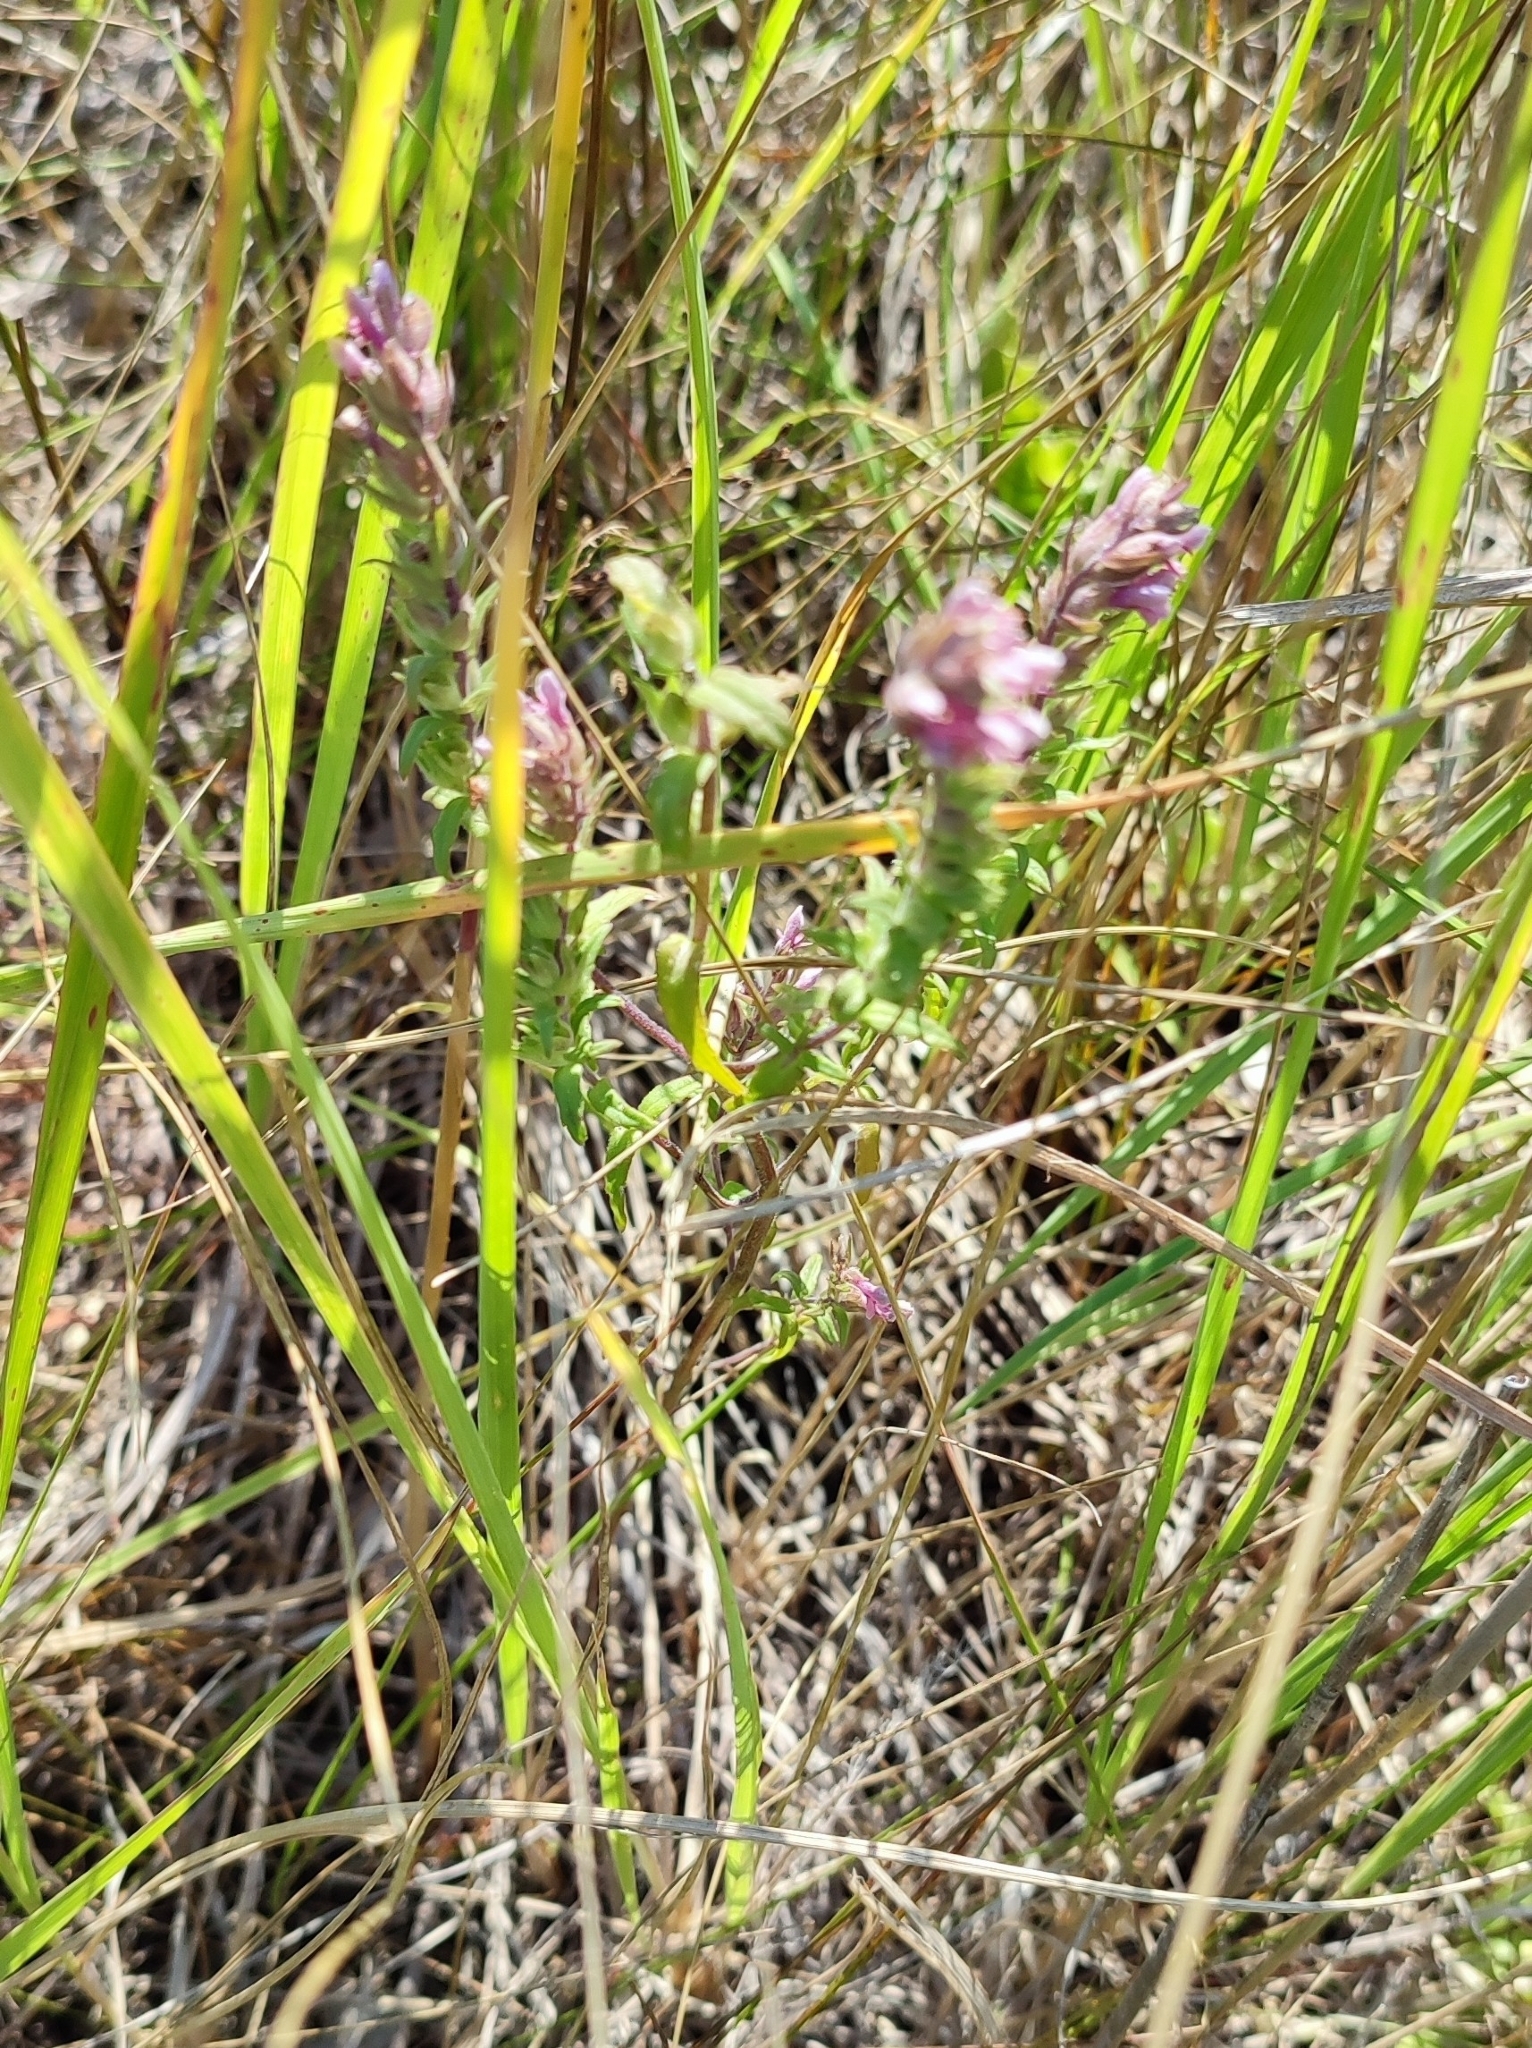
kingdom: Plantae
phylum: Tracheophyta
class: Magnoliopsida
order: Lamiales
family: Orobanchaceae
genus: Odontites
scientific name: Odontites vulgaris
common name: Broomrape
